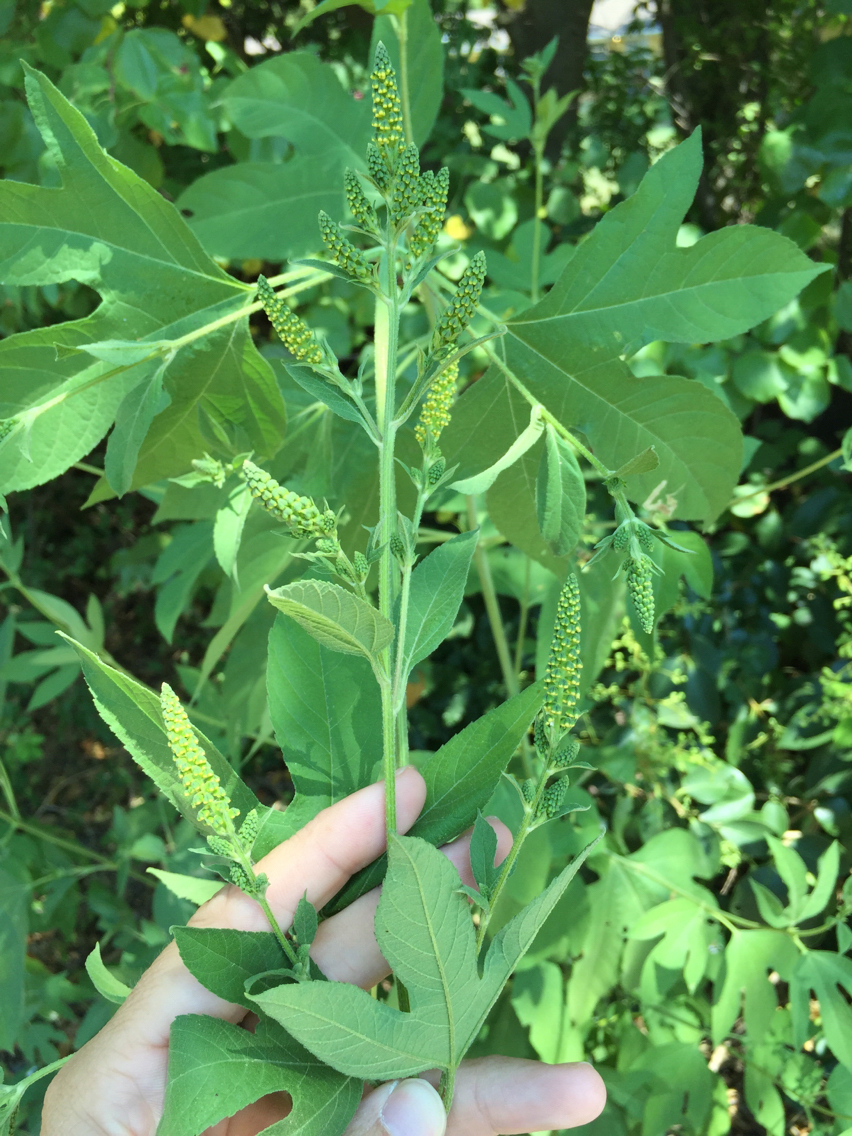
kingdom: Plantae
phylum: Tracheophyta
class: Magnoliopsida
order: Asterales
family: Asteraceae
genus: Ambrosia
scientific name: Ambrosia trifida
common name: Giant ragweed
